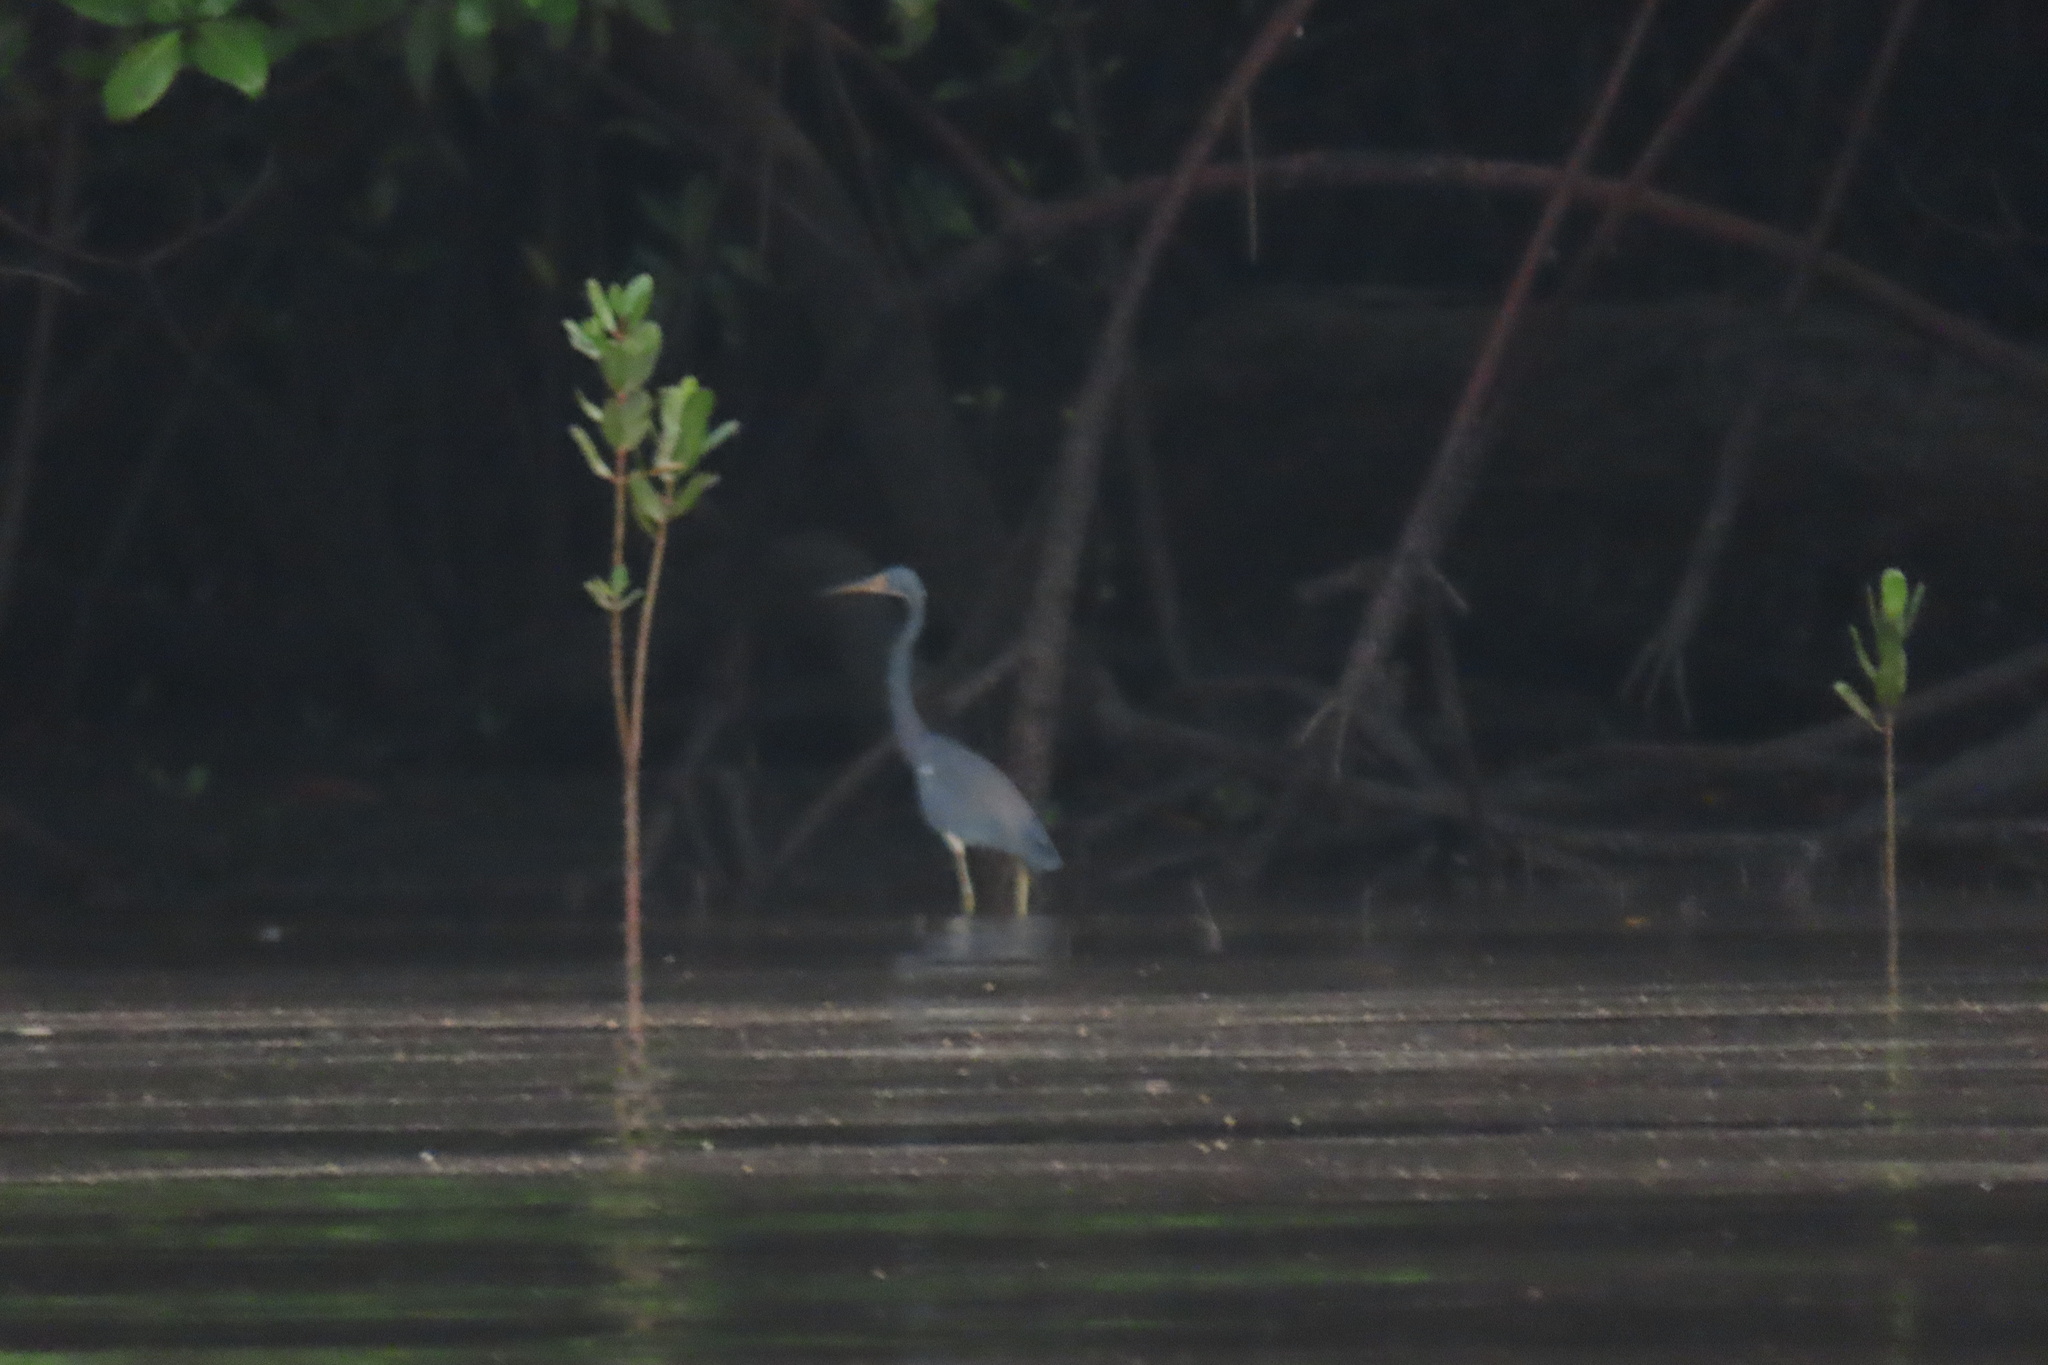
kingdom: Animalia
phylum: Chordata
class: Aves
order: Pelecaniformes
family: Ardeidae
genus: Egretta
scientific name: Egretta tricolor
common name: Tricolored heron
